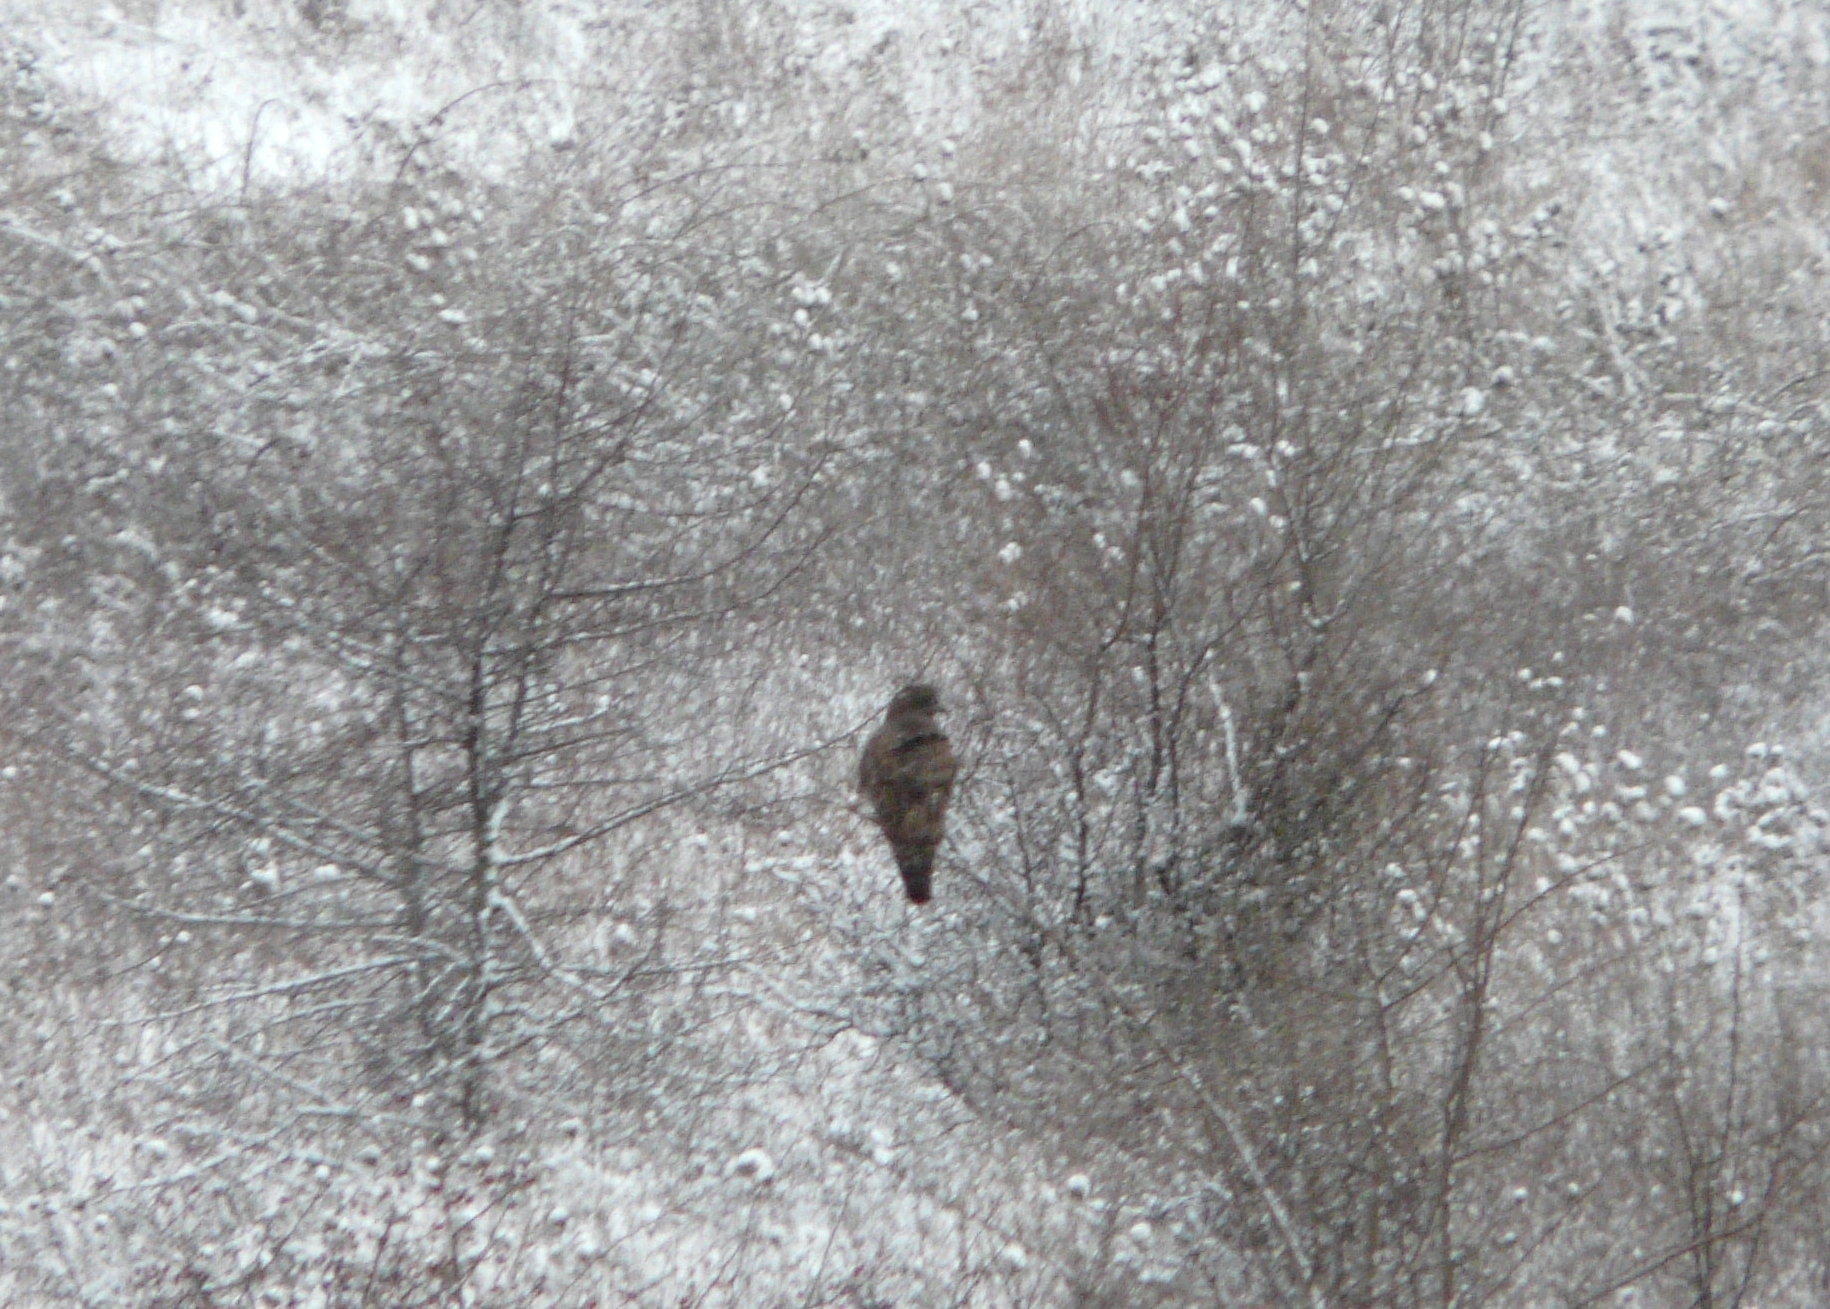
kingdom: Animalia
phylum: Chordata
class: Aves
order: Accipitriformes
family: Accipitridae
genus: Buteo
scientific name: Buteo buteo
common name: Common buzzard
